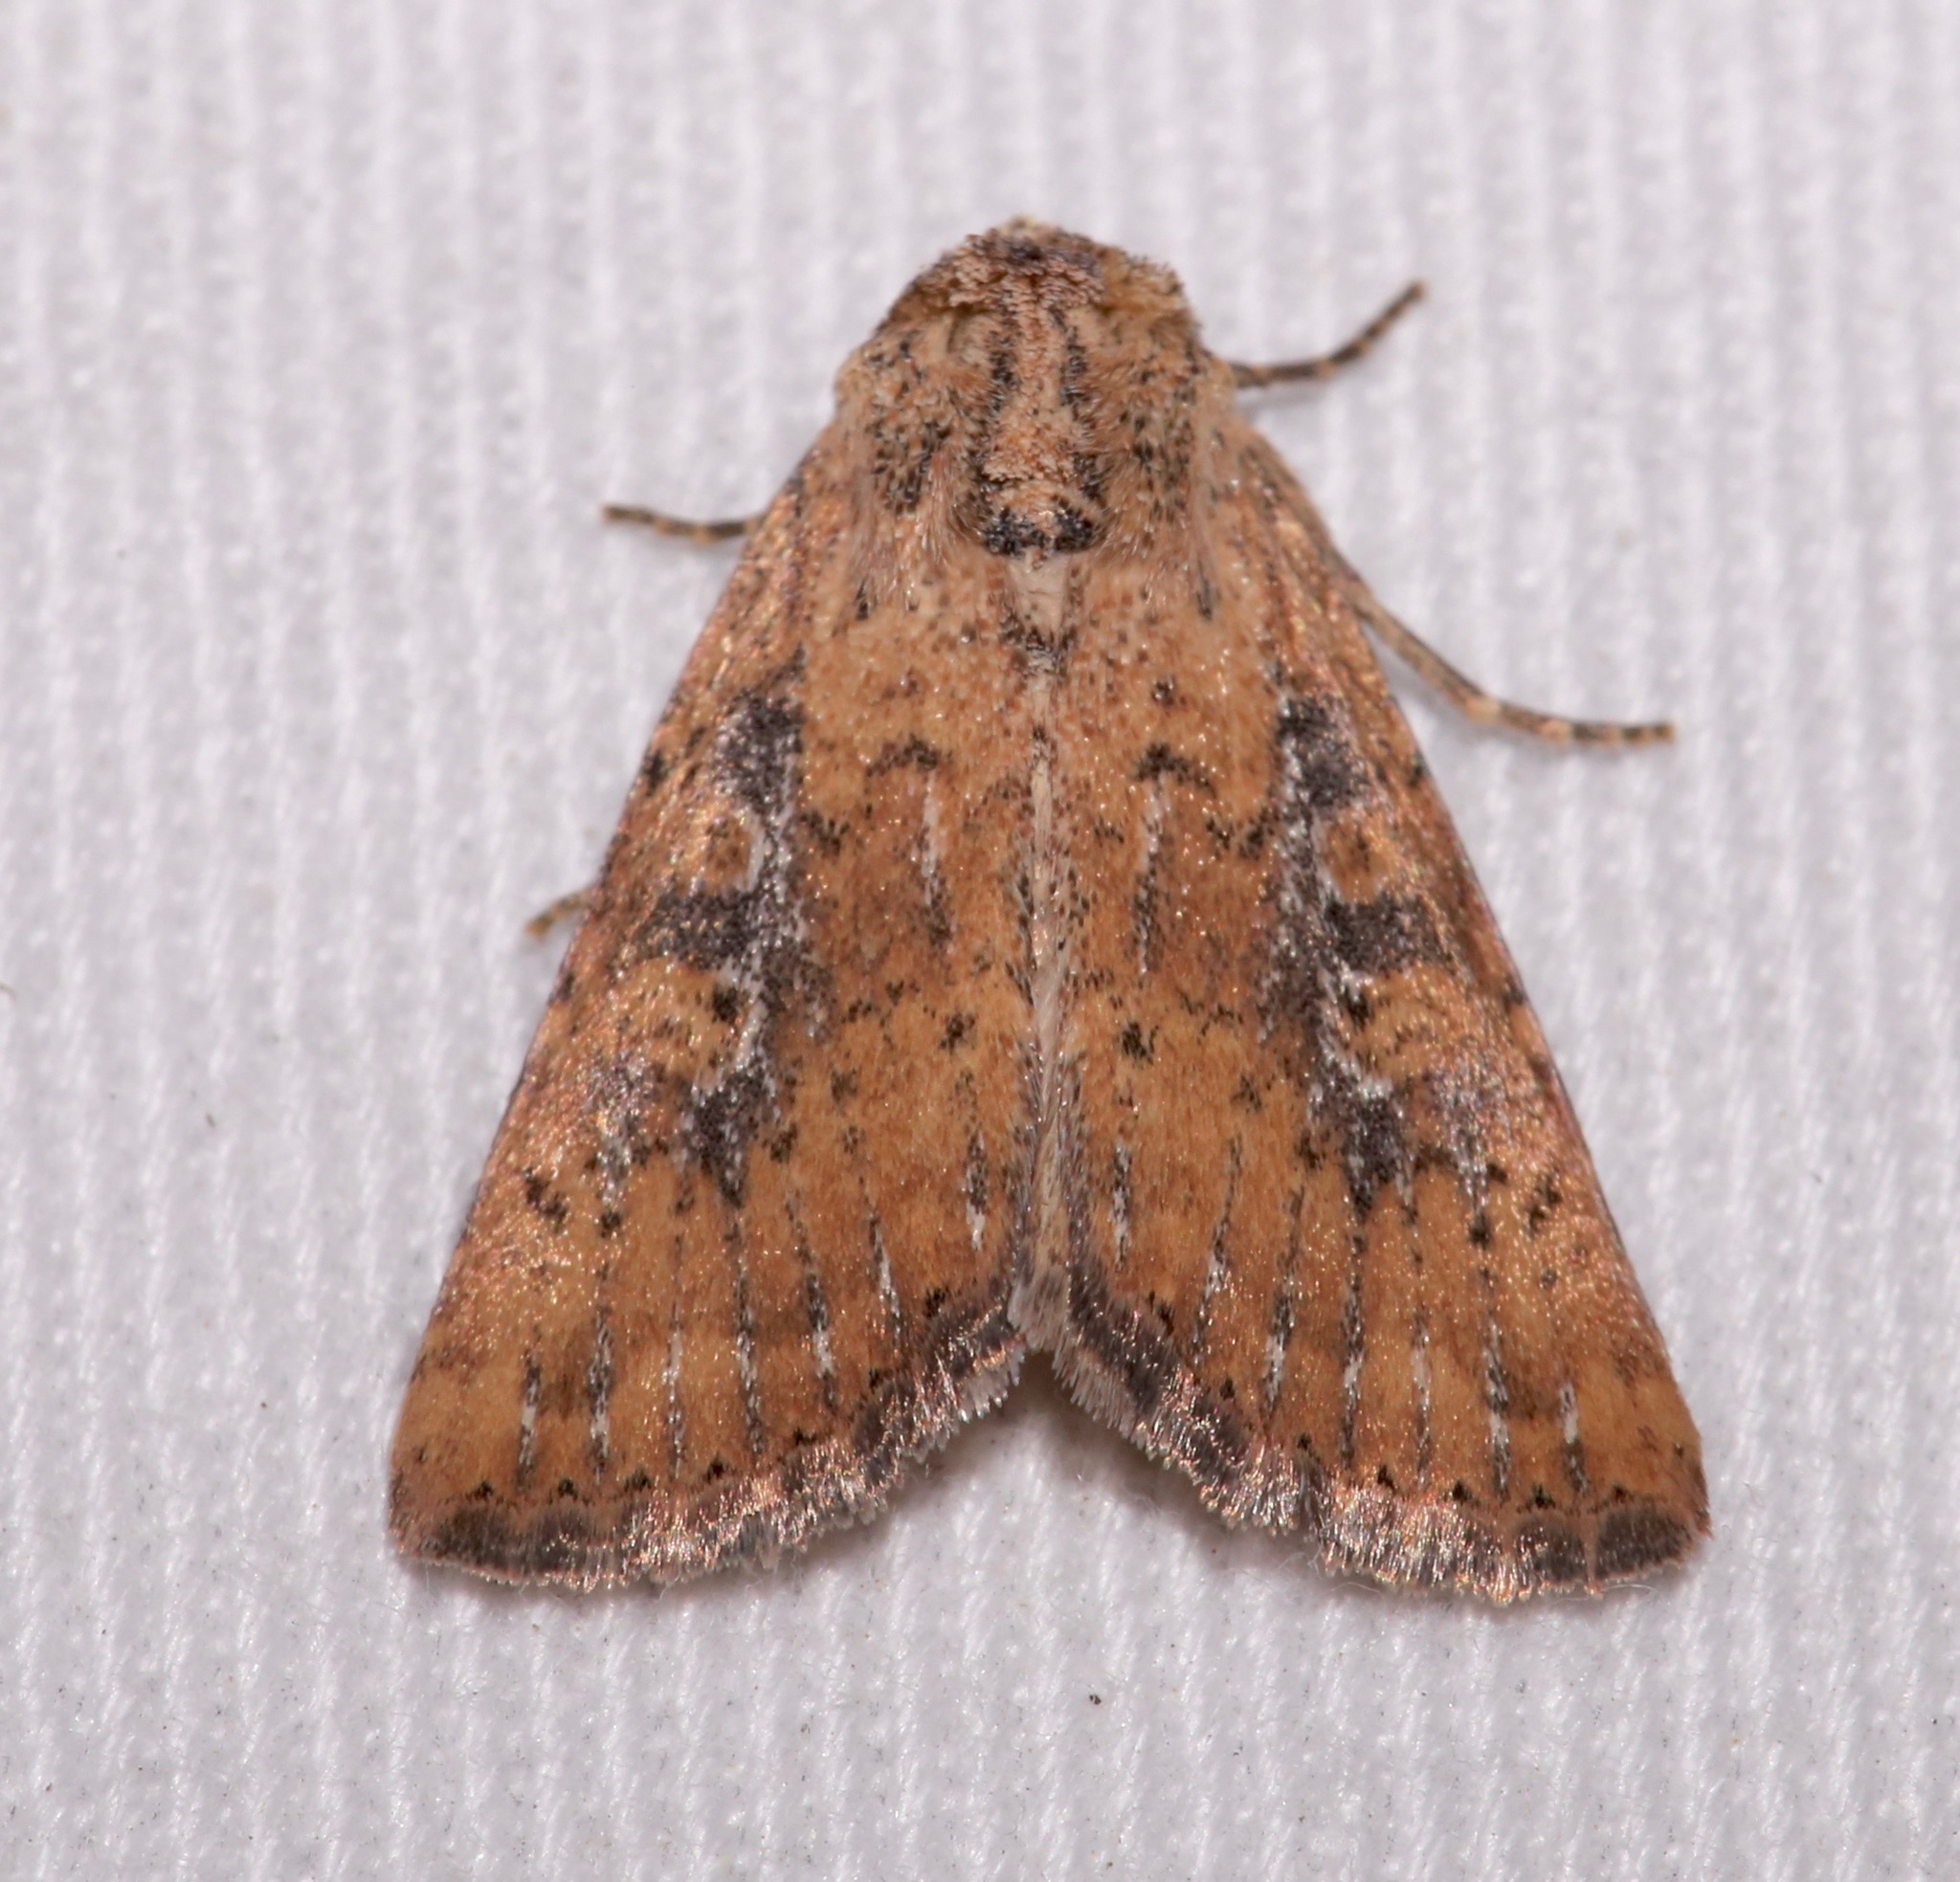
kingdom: Animalia
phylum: Arthropoda
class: Insecta
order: Lepidoptera
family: Noctuidae
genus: Perigea
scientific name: Perigea xanthioides
